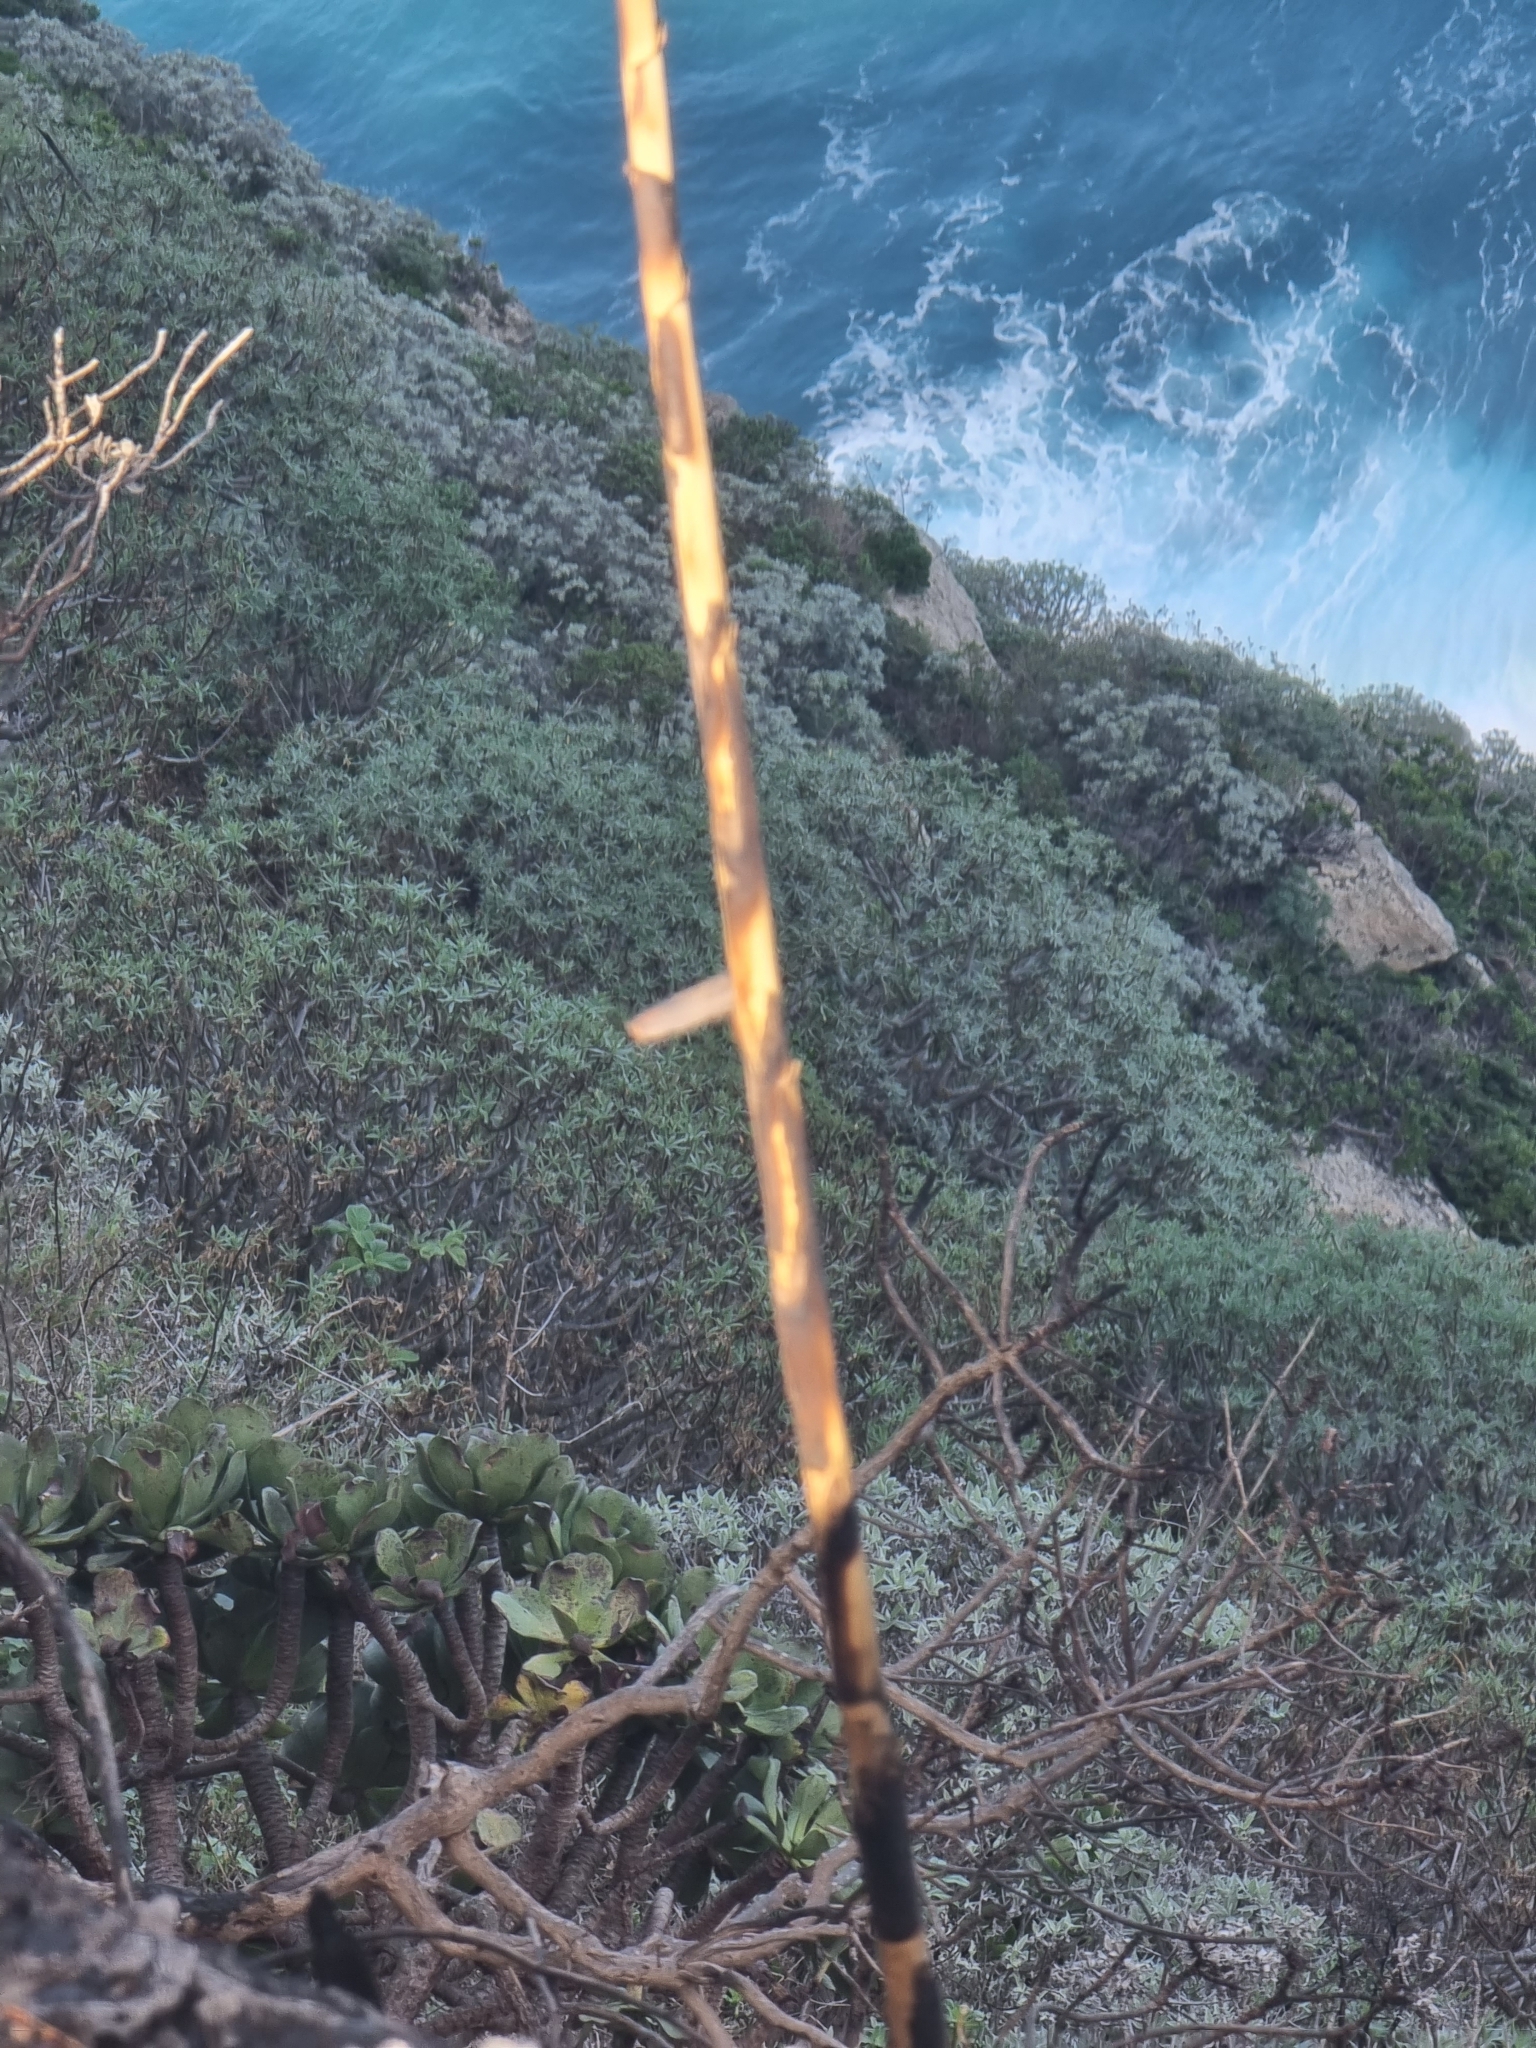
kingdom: Plantae
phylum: Tracheophyta
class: Magnoliopsida
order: Malpighiales
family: Euphorbiaceae
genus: Euphorbia
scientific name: Euphorbia piscatoria
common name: Fish-stunning spurge
